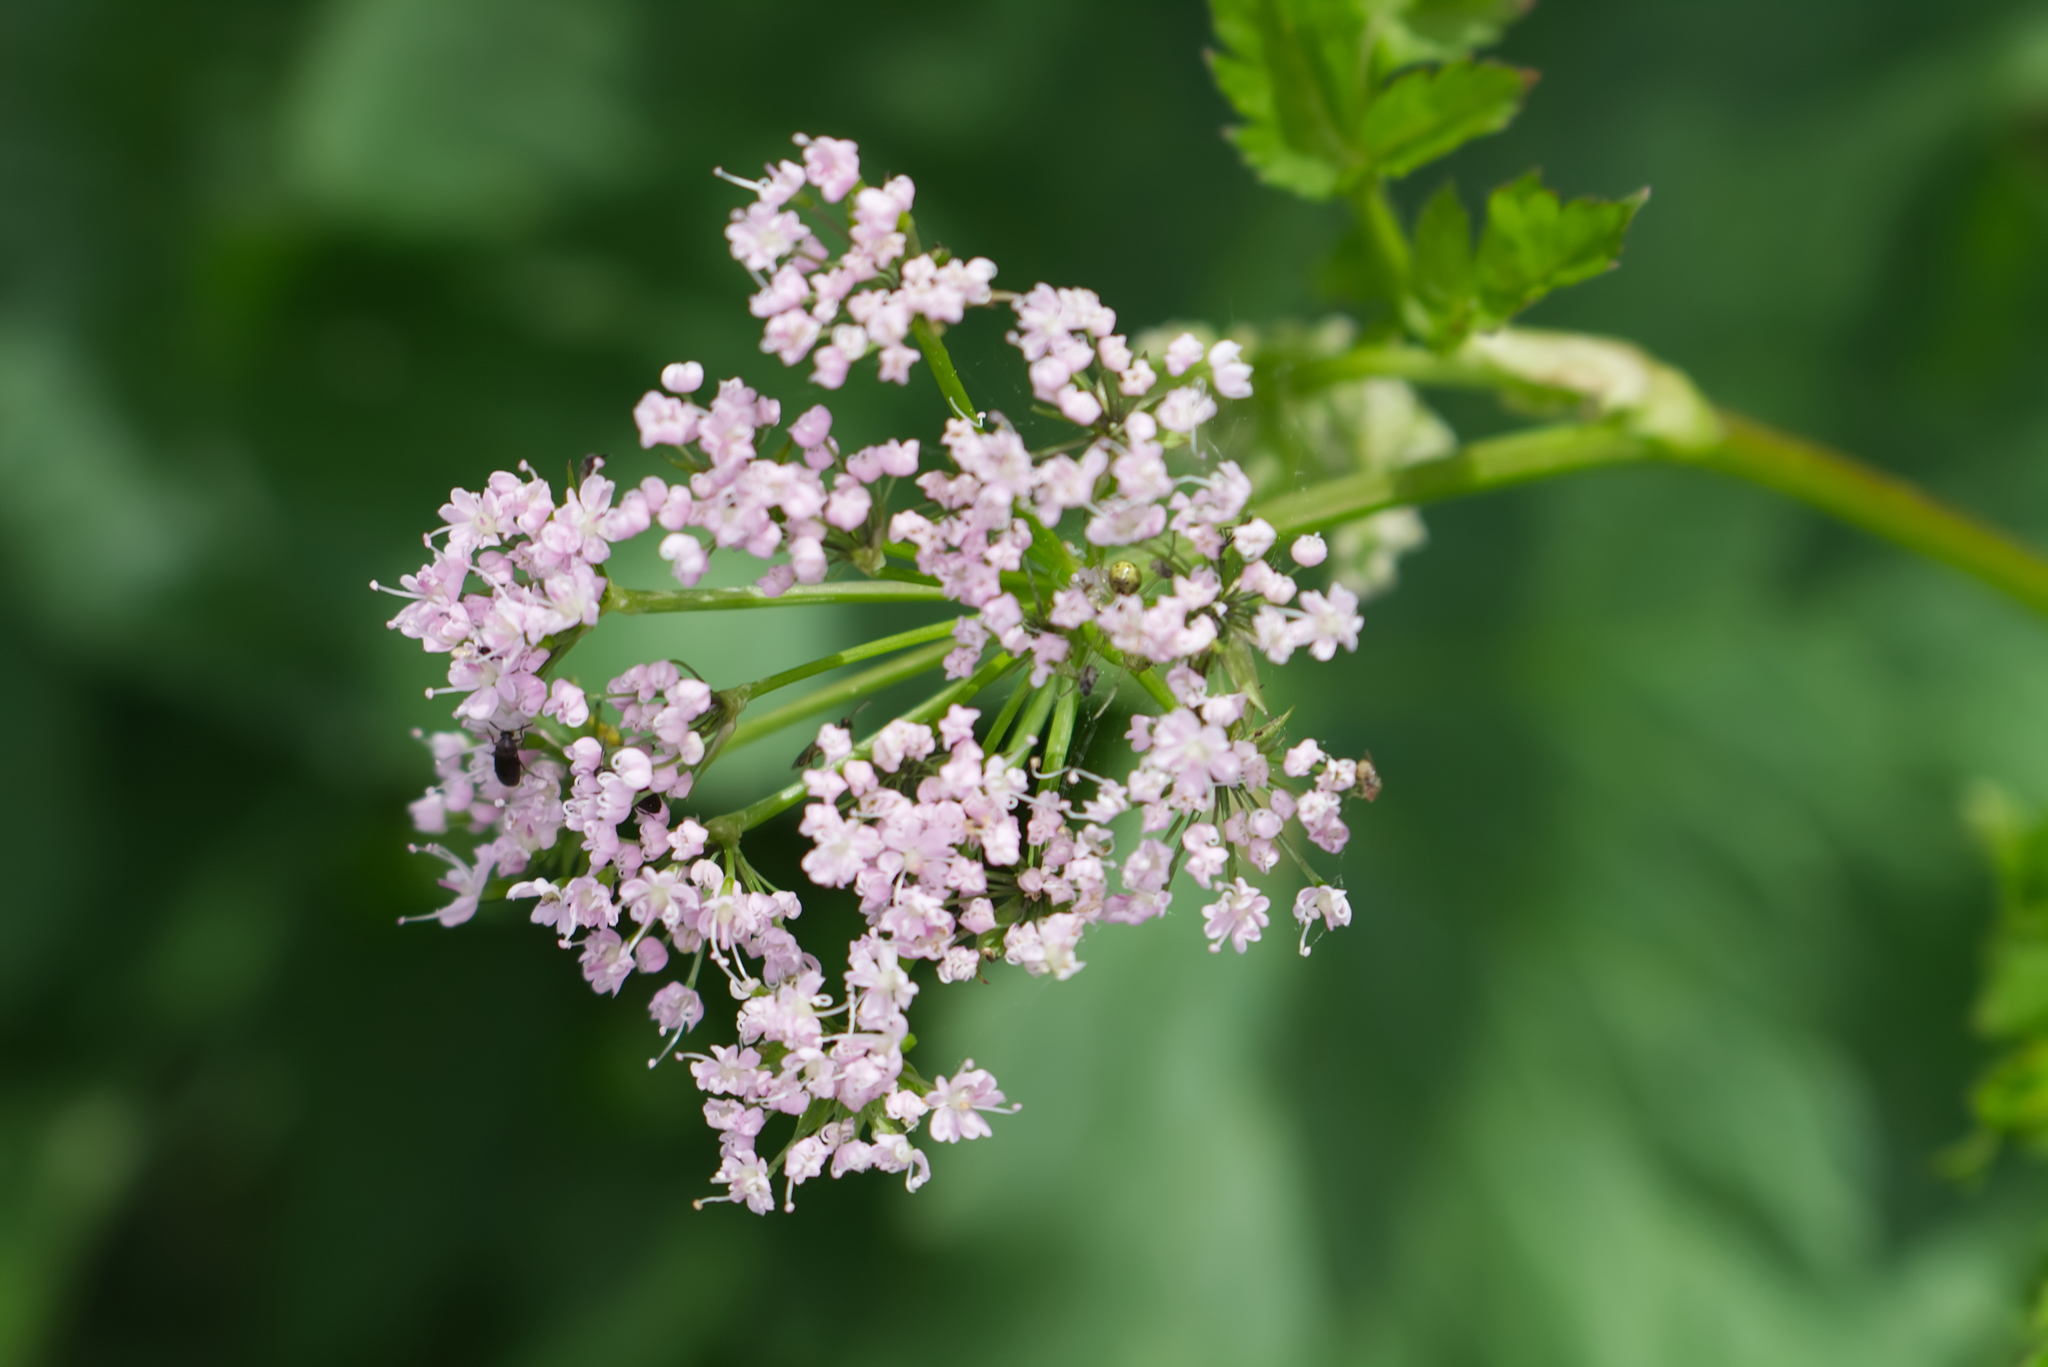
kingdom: Plantae
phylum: Tracheophyta
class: Magnoliopsida
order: Apiales
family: Apiaceae
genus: Chaerophyllum
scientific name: Chaerophyllum hirsutum
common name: Hairy chervil
